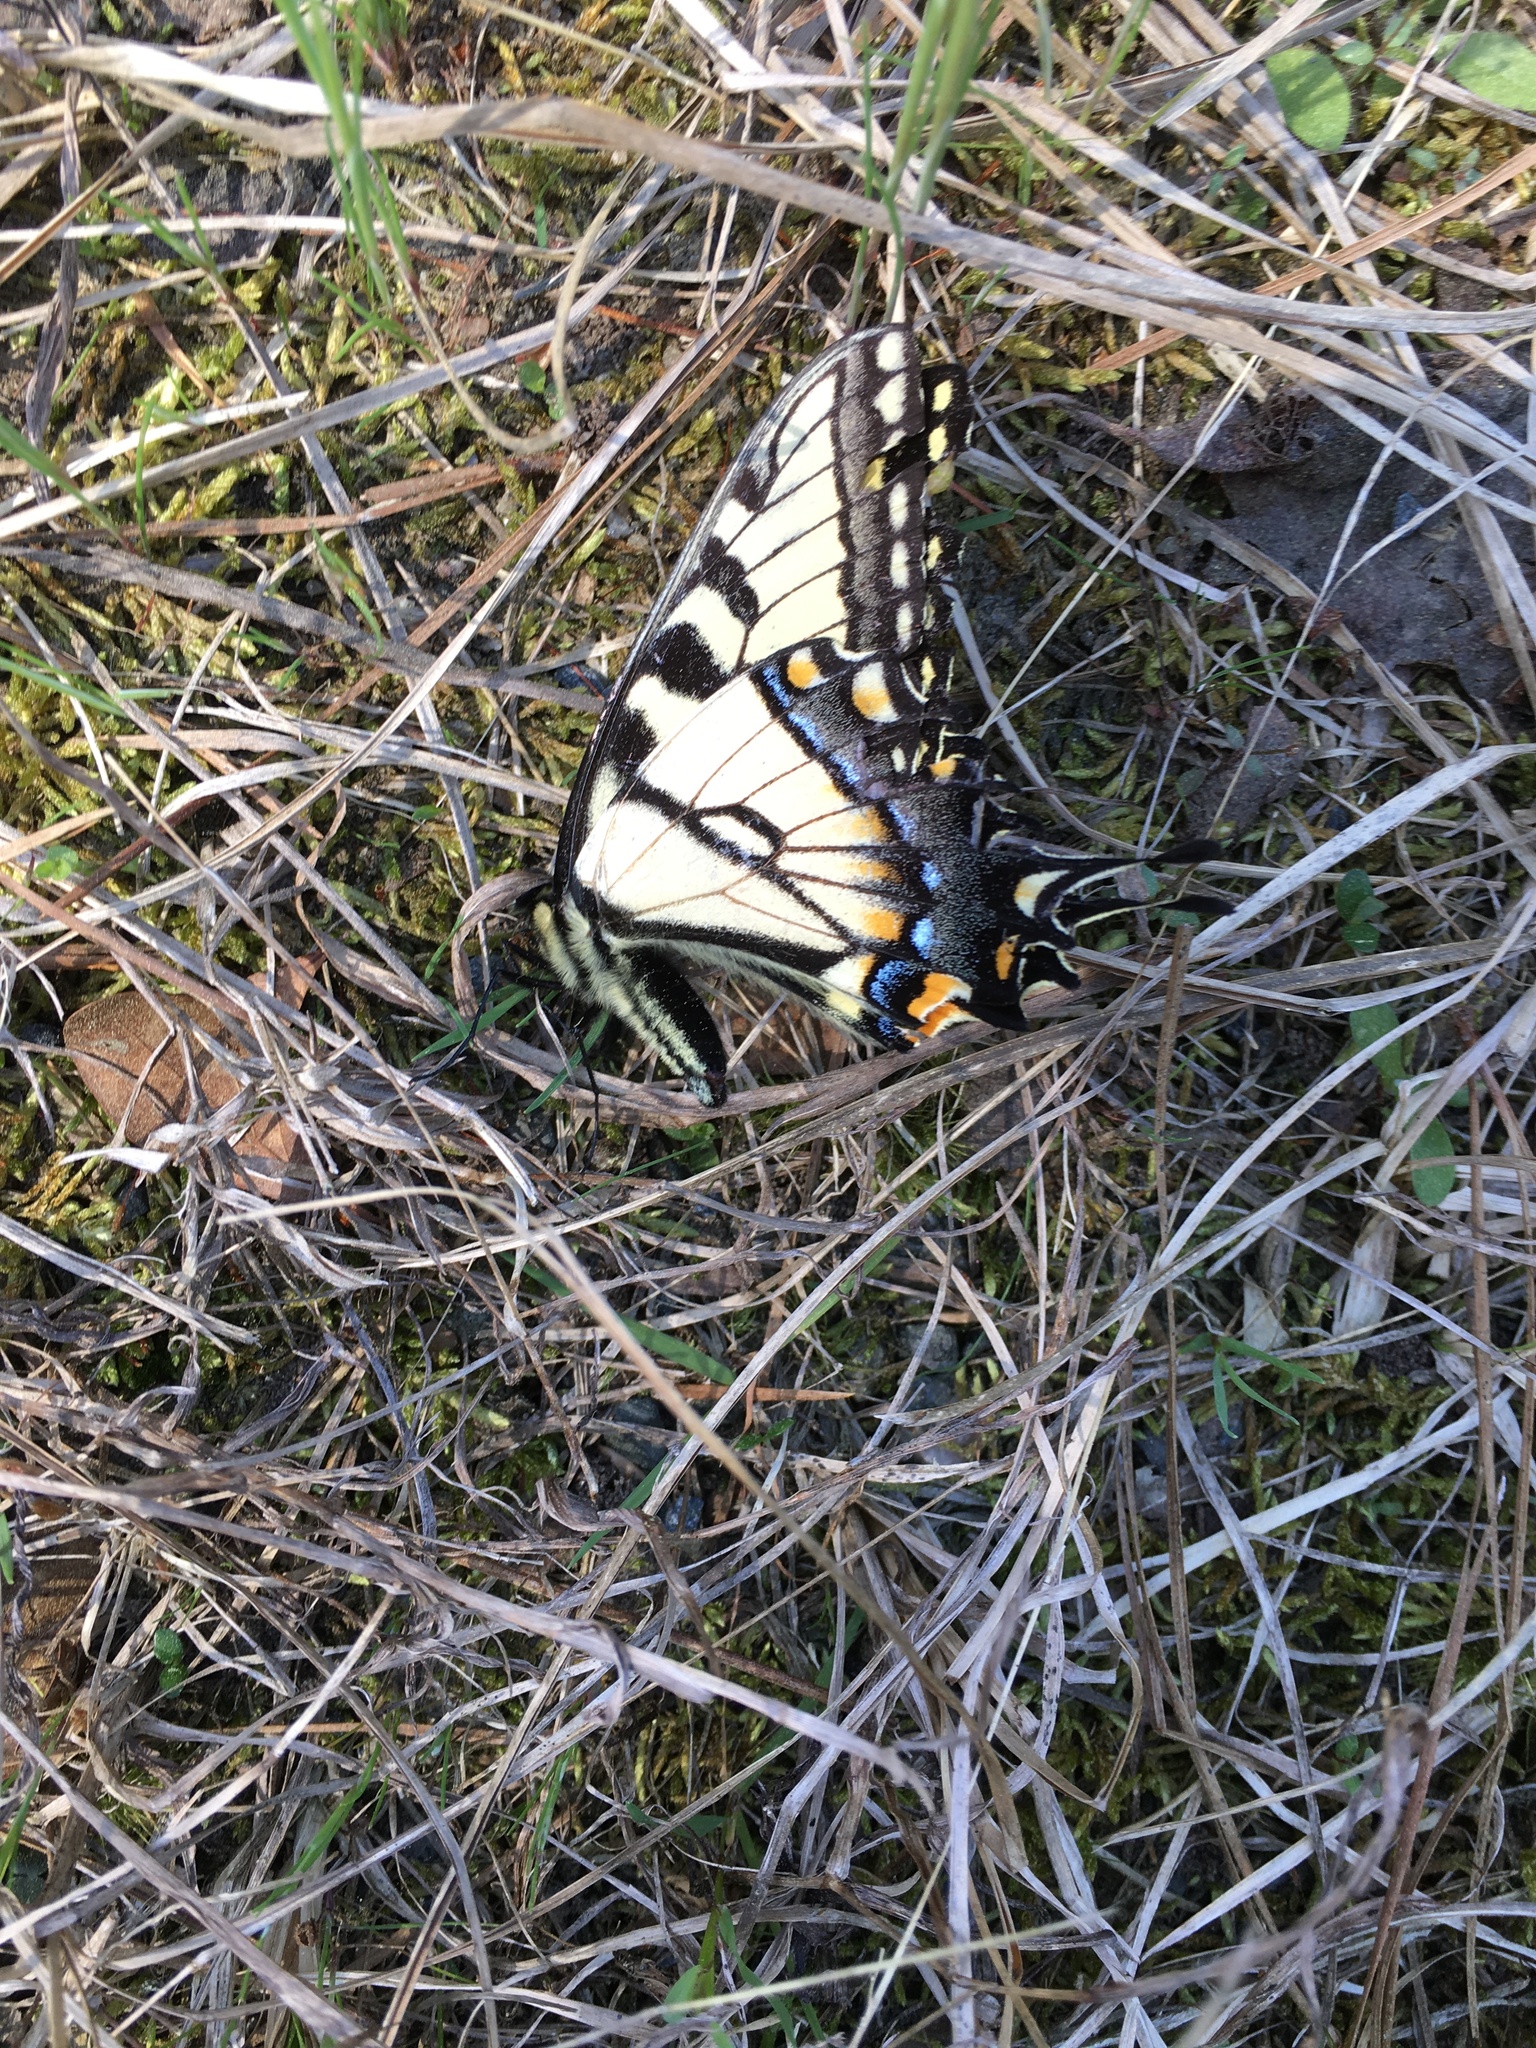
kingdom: Animalia
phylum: Arthropoda
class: Insecta
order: Lepidoptera
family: Papilionidae
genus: Papilio
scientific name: Papilio glaucus
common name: Tiger swallowtail
